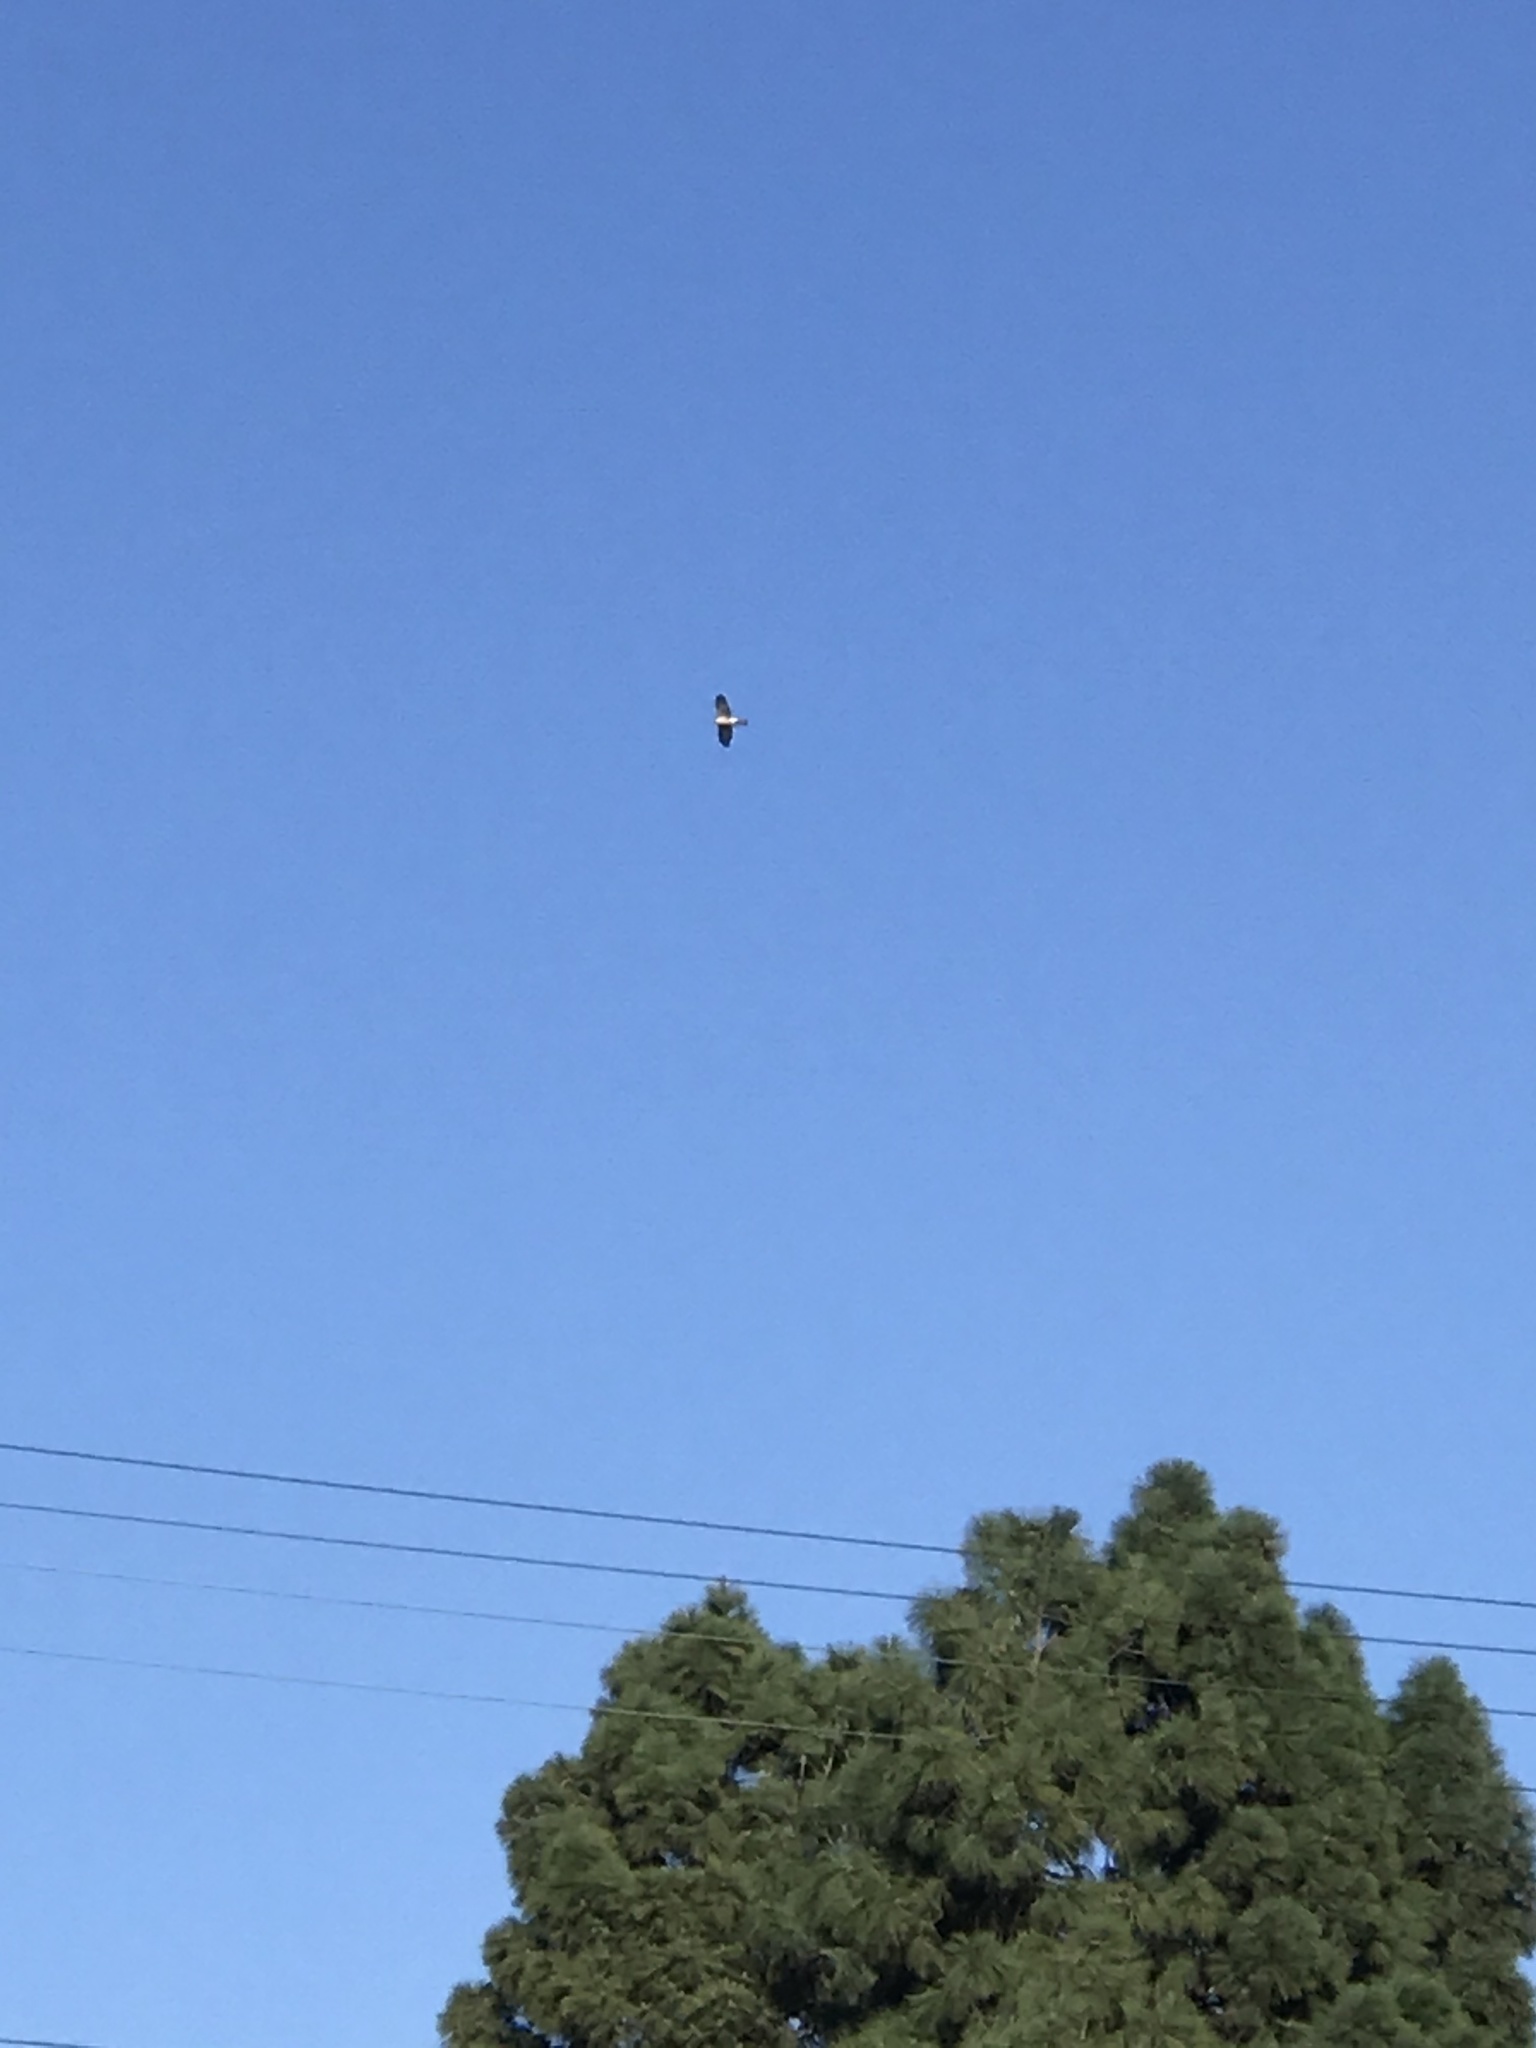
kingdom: Animalia
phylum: Chordata
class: Aves
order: Accipitriformes
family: Accipitridae
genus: Accipiter
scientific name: Accipiter
